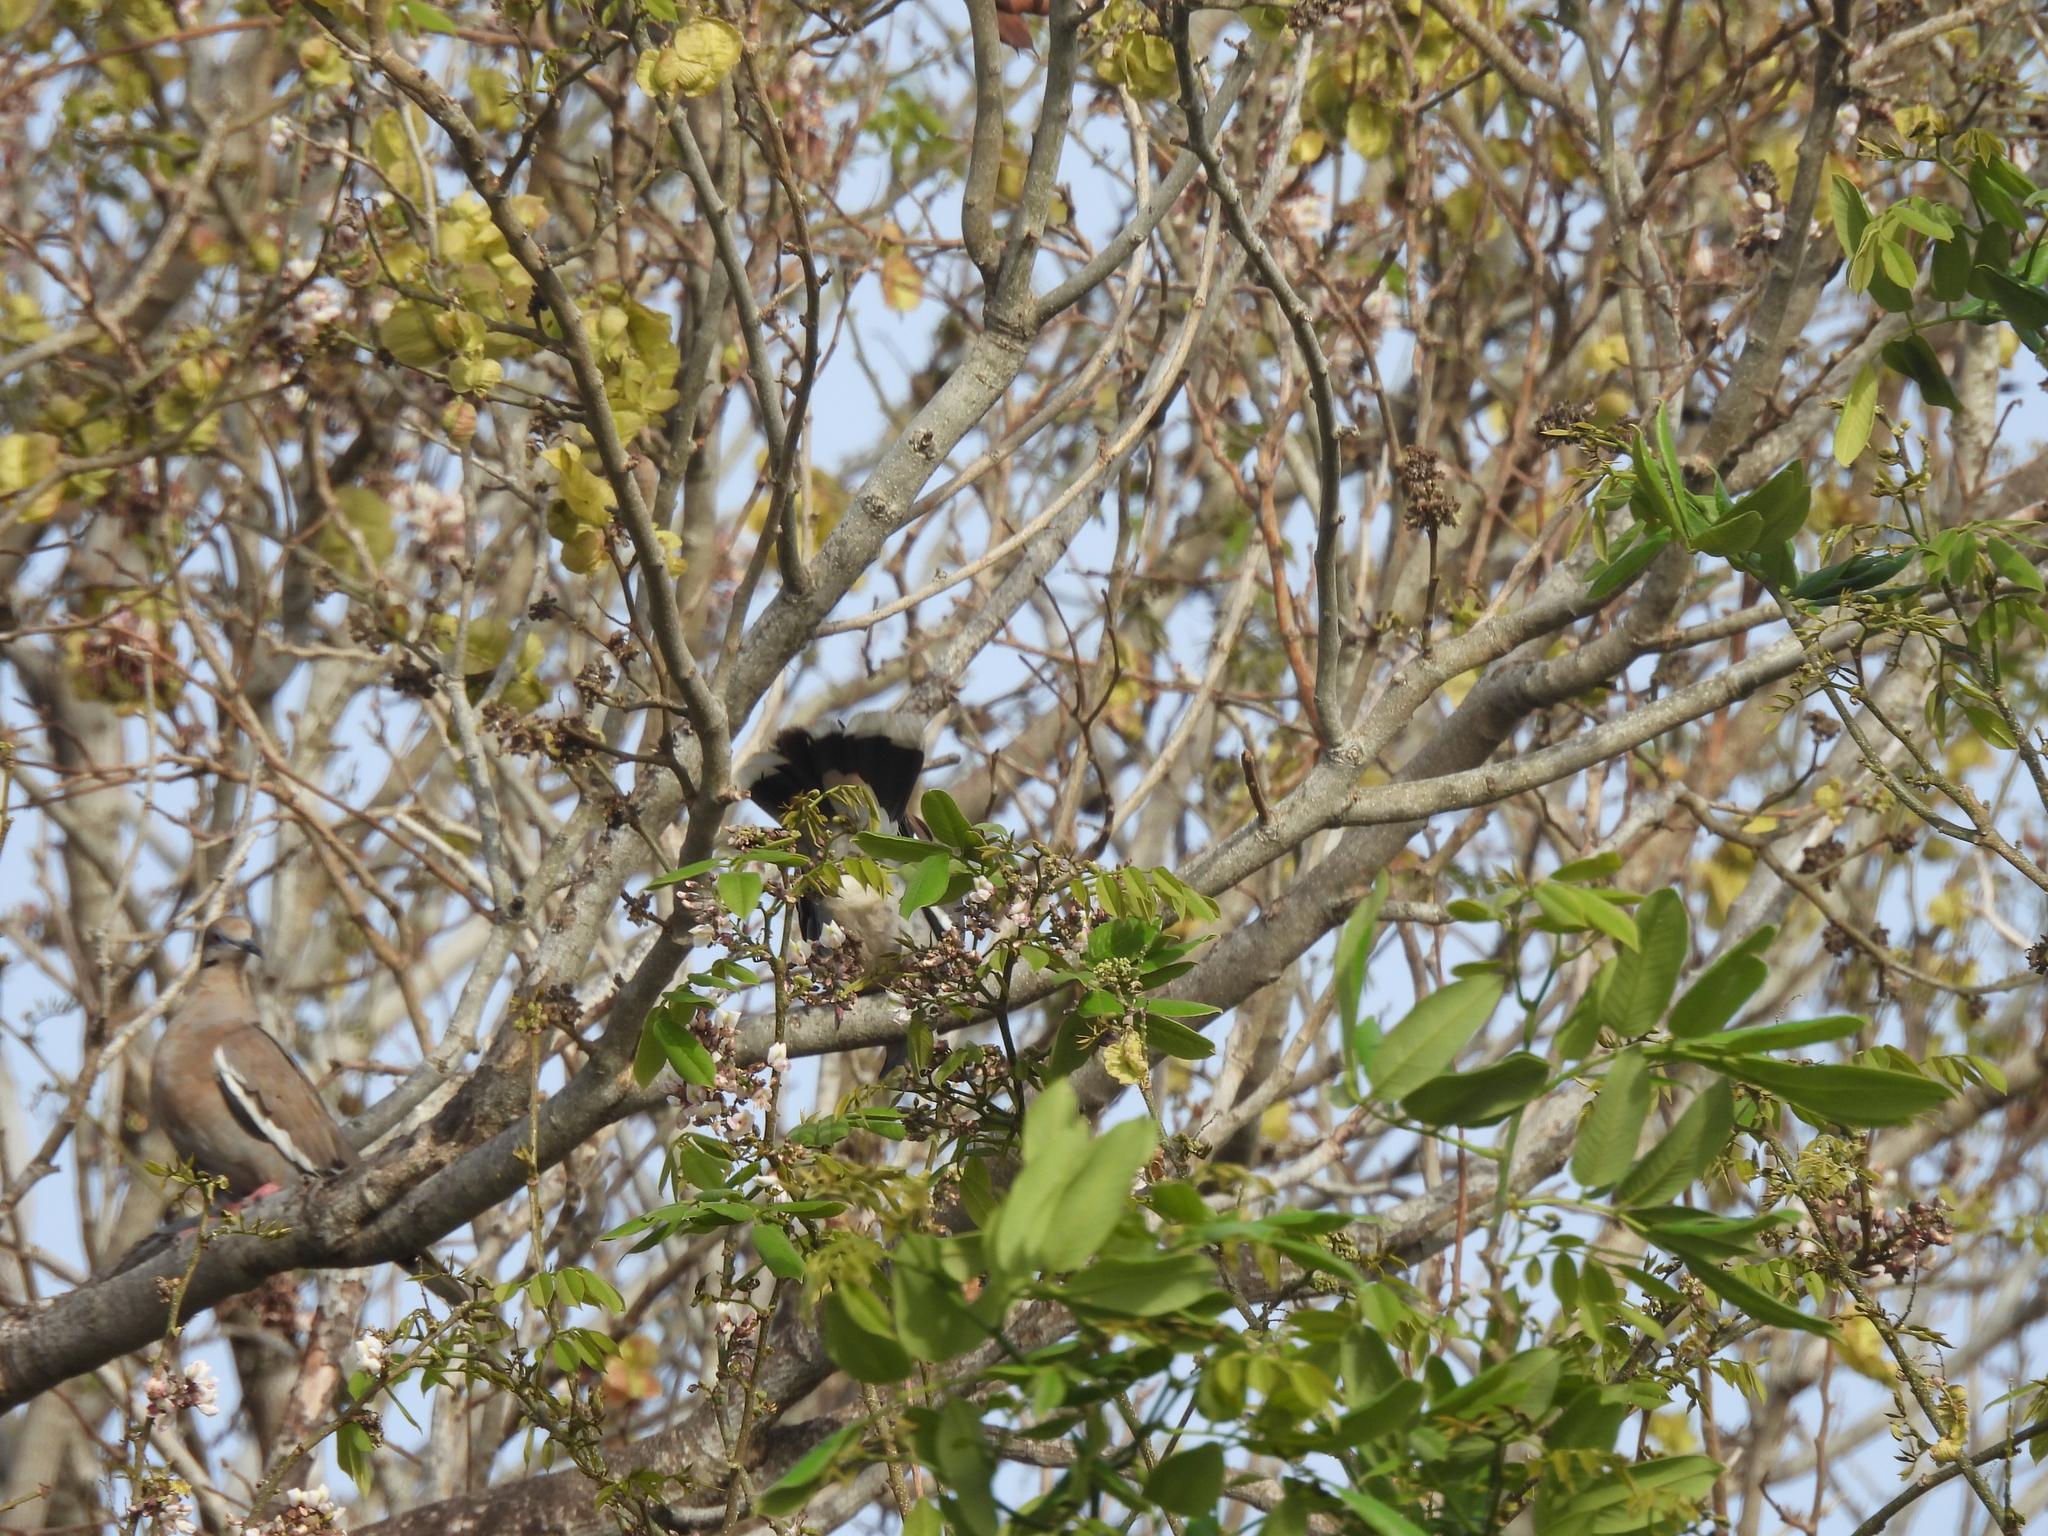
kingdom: Animalia
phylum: Chordata
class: Aves
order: Columbiformes
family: Columbidae
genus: Zenaida
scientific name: Zenaida asiatica
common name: White-winged dove
